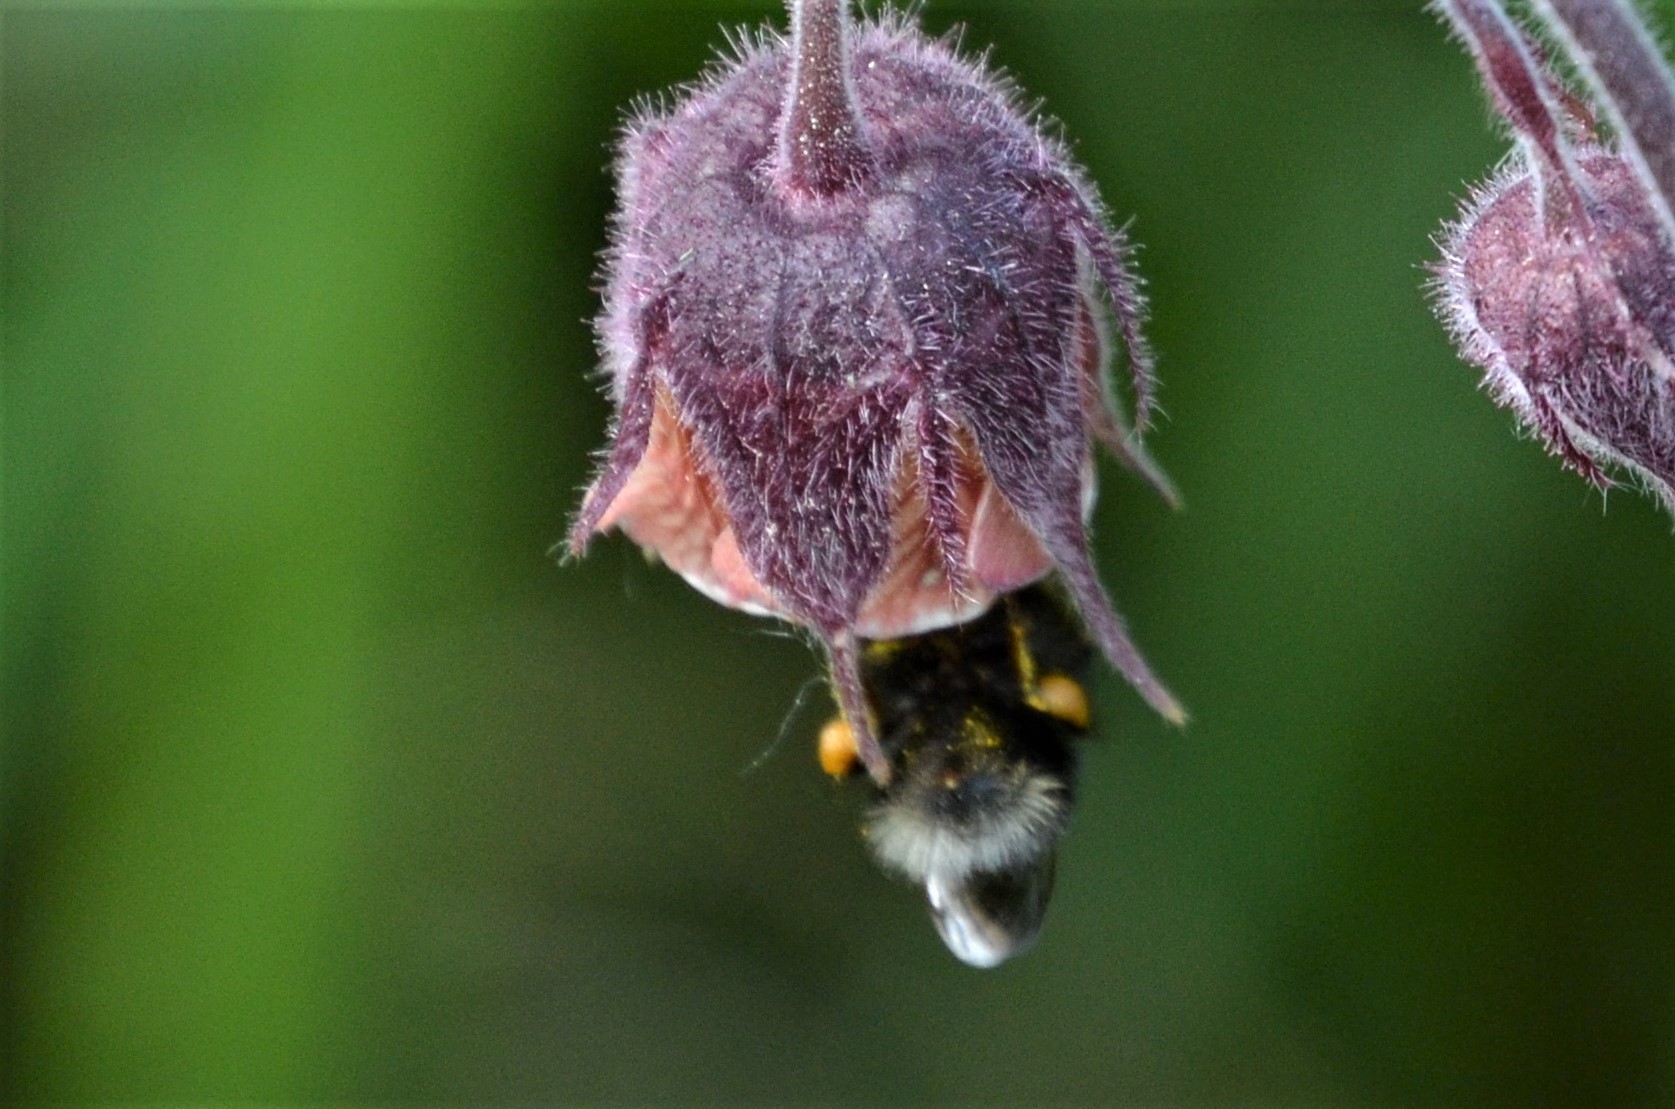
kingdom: Animalia
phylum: Arthropoda
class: Insecta
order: Hymenoptera
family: Apidae
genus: Bombus
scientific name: Bombus hypnorum
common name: New garden bumblebee
